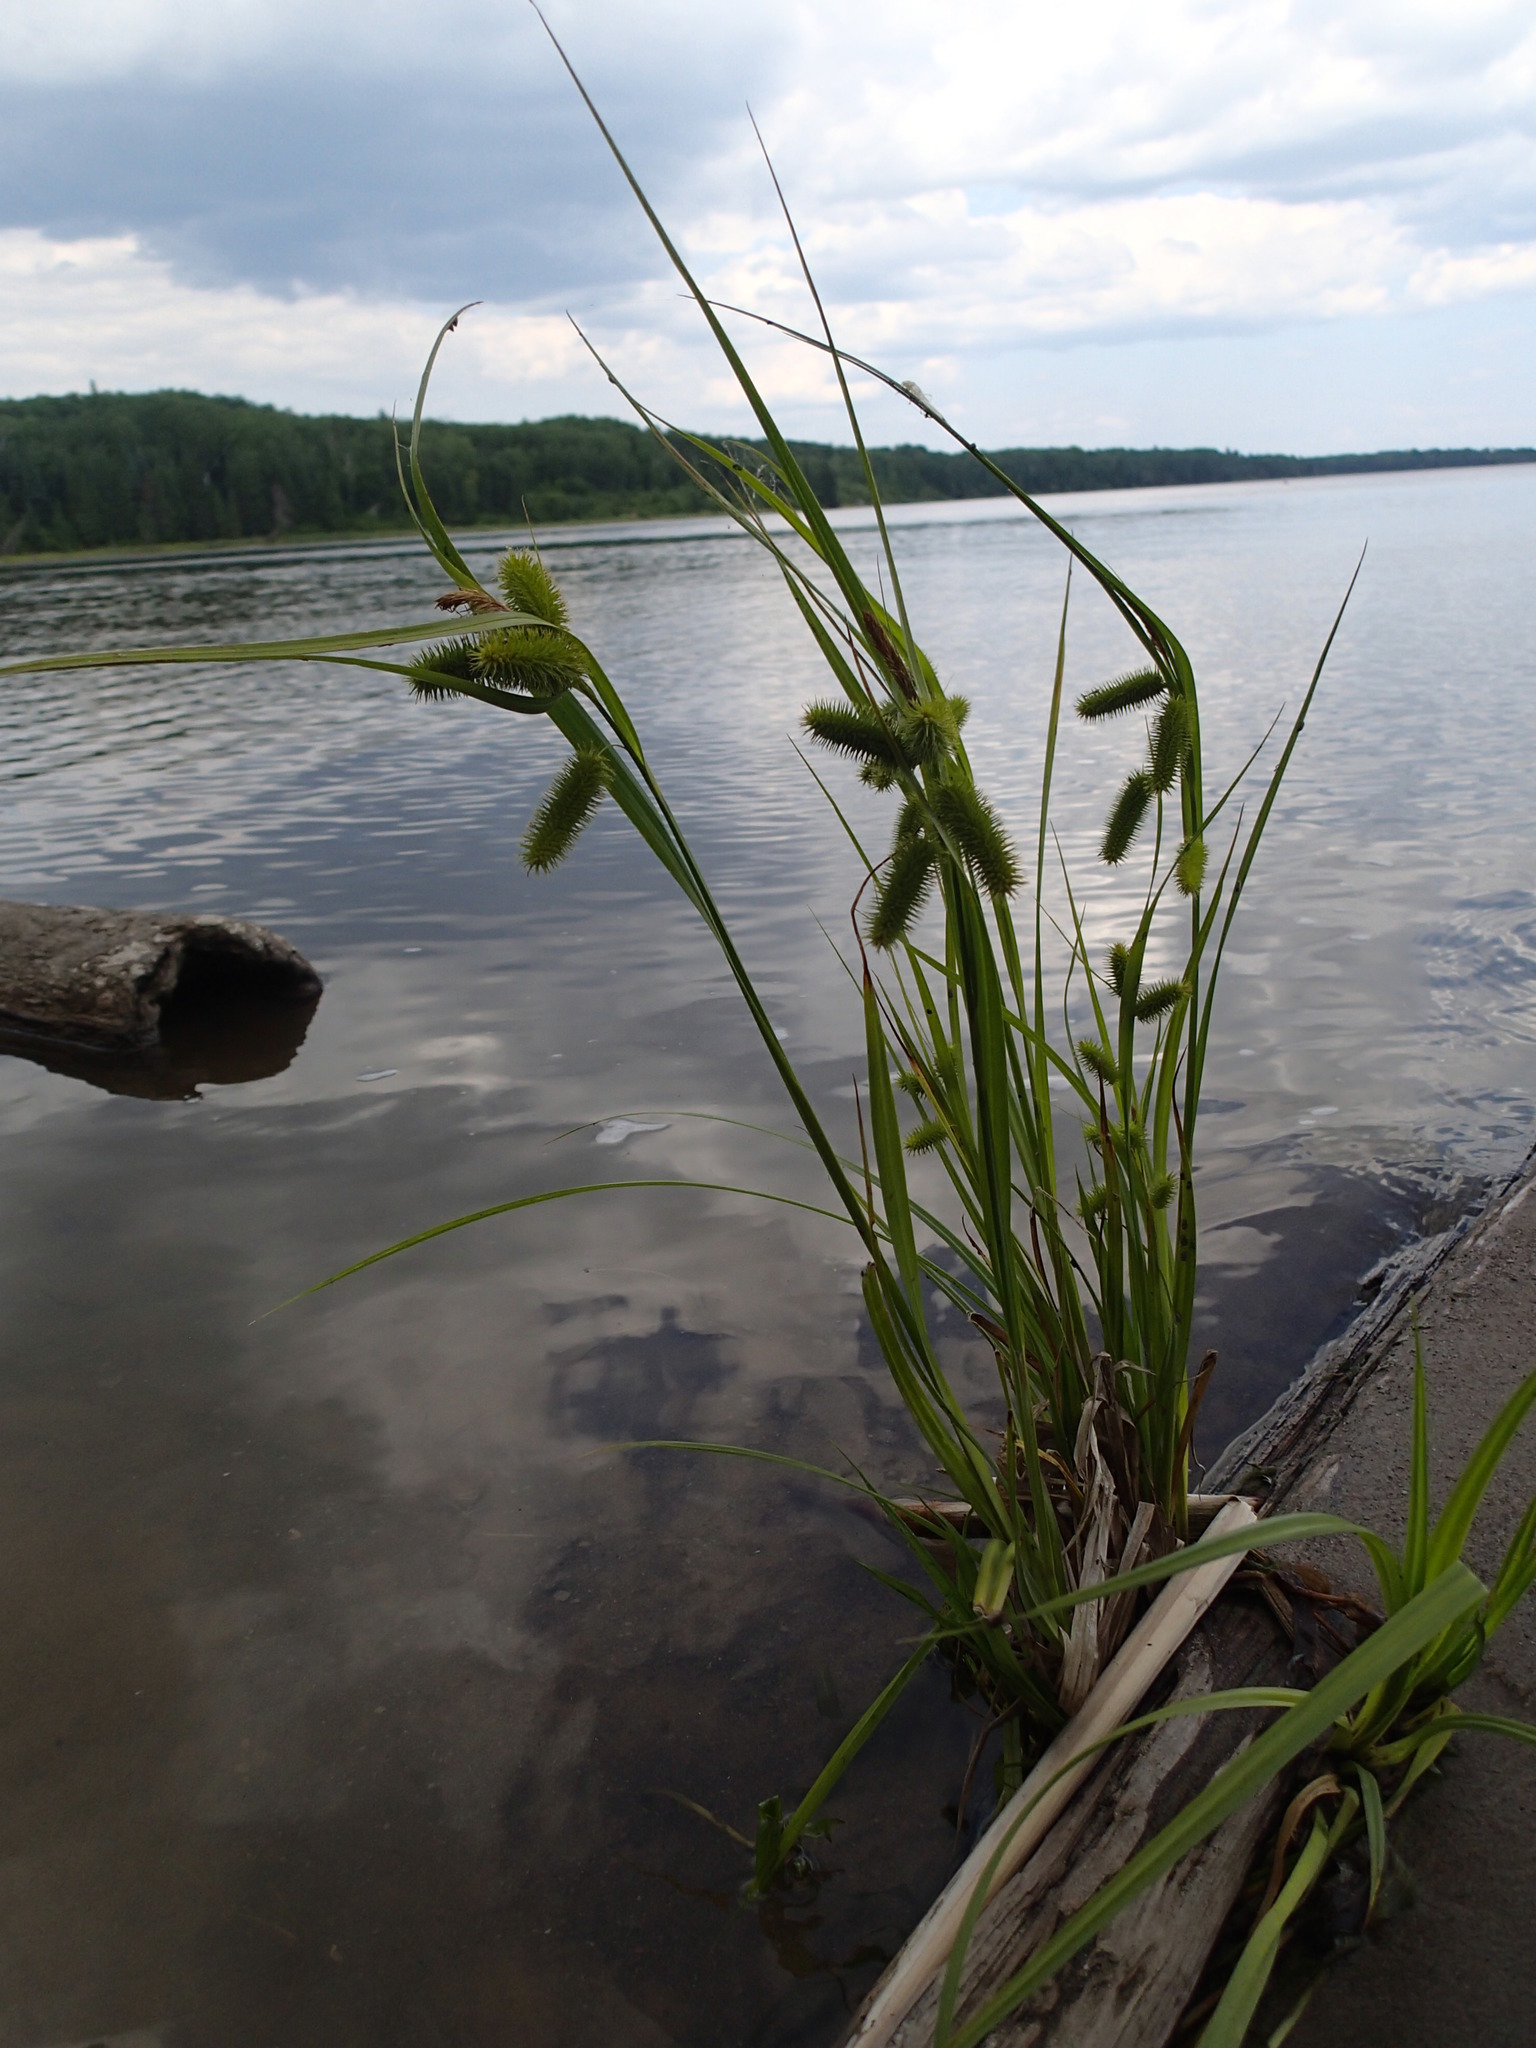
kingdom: Plantae
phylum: Tracheophyta
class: Liliopsida
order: Poales
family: Cyperaceae
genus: Carex
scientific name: Carex comosa
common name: Bristly sedge
